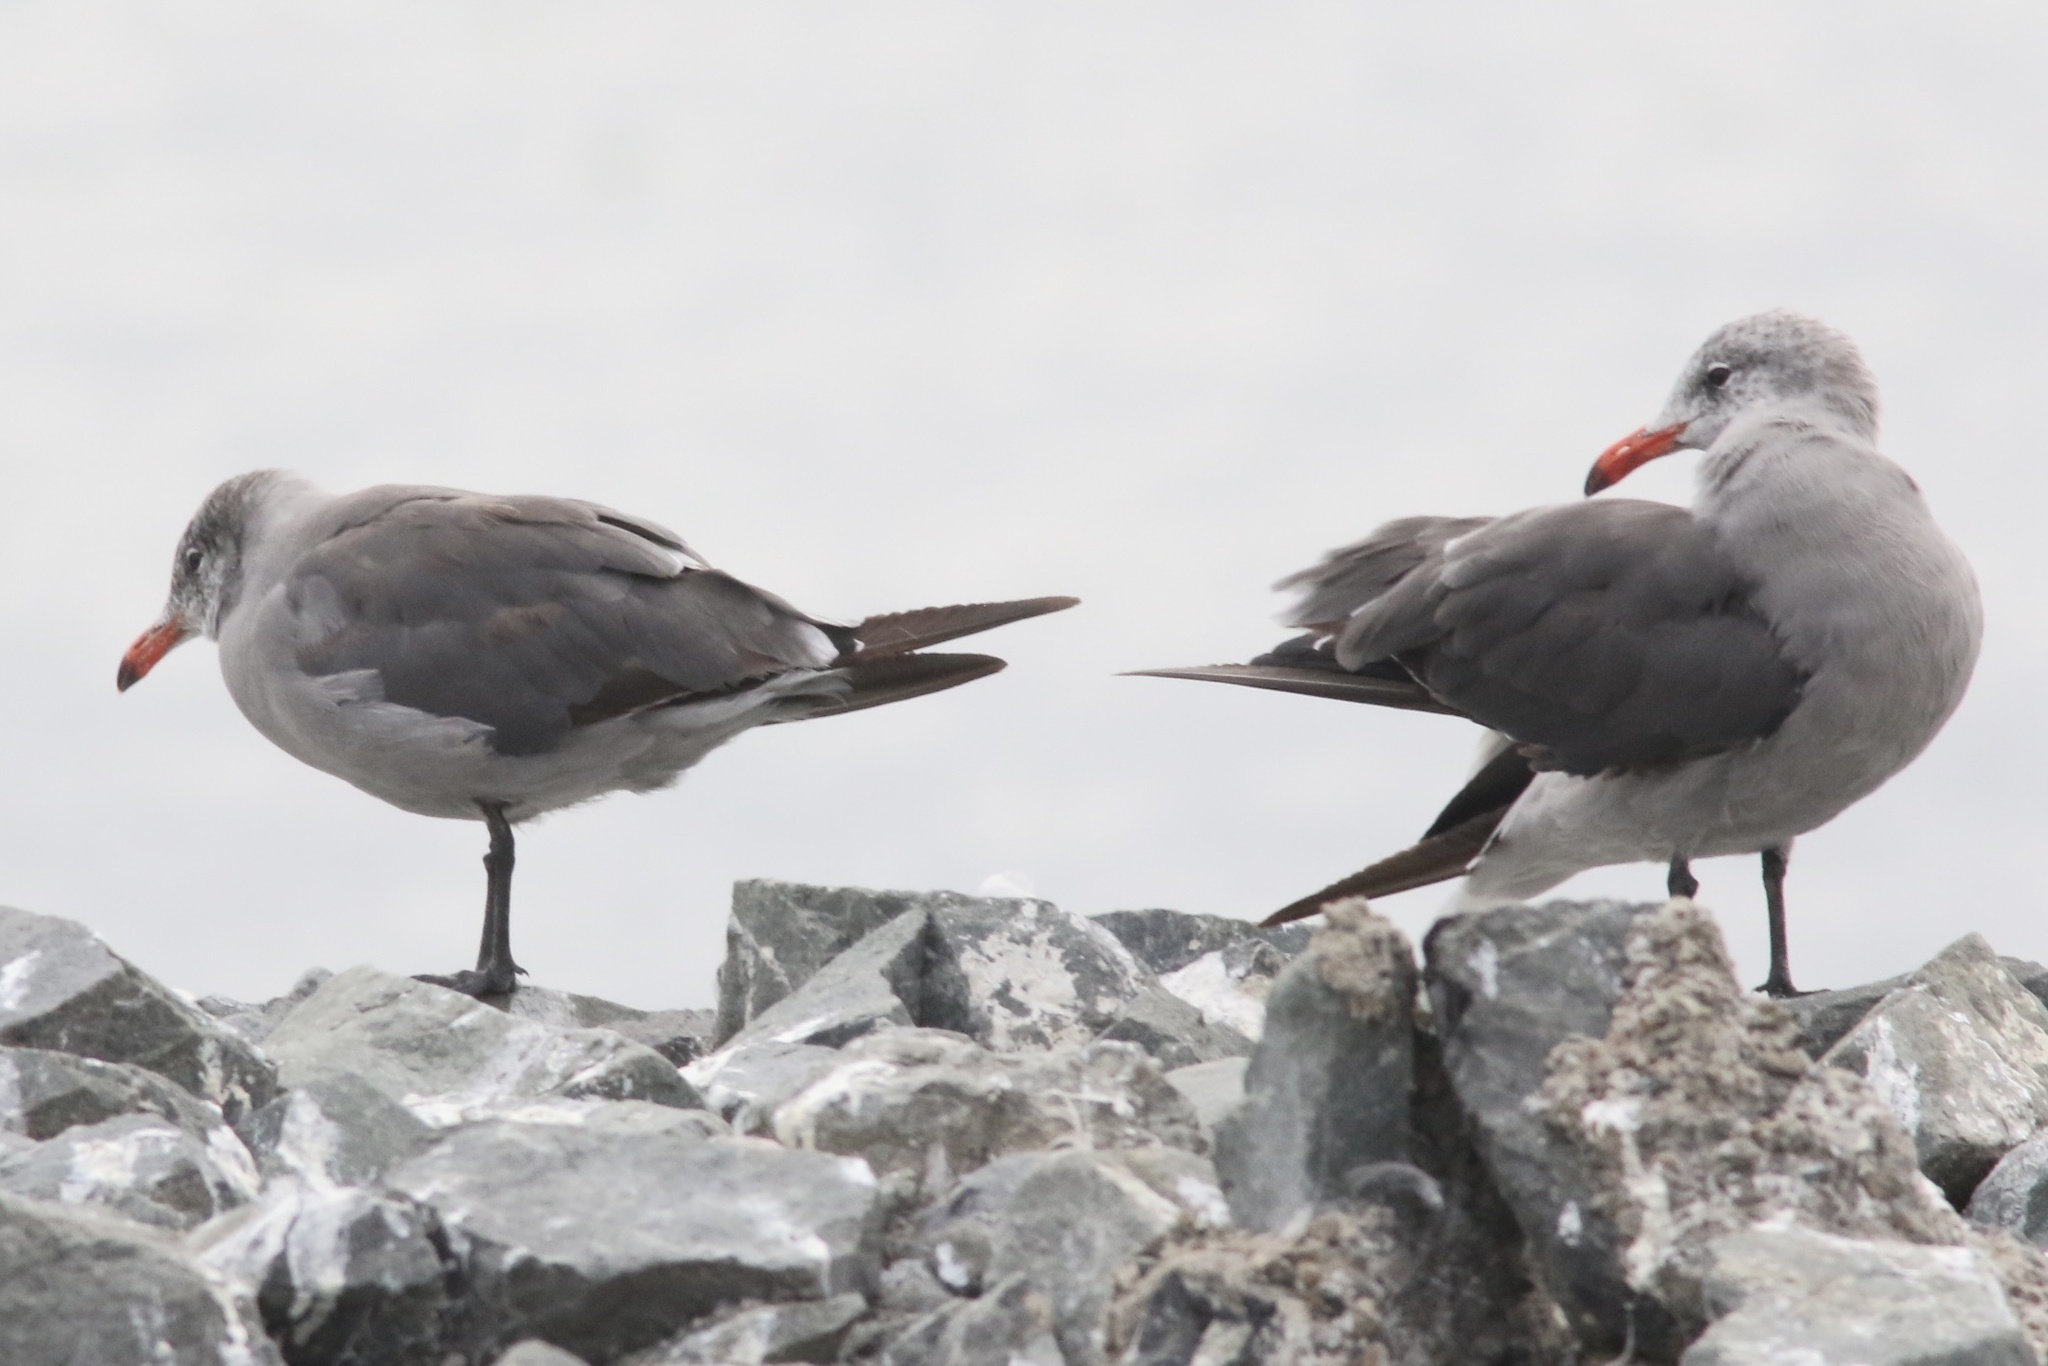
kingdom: Animalia
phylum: Chordata
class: Aves
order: Charadriiformes
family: Laridae
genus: Larus
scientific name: Larus heermanni
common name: Heermann's gull
